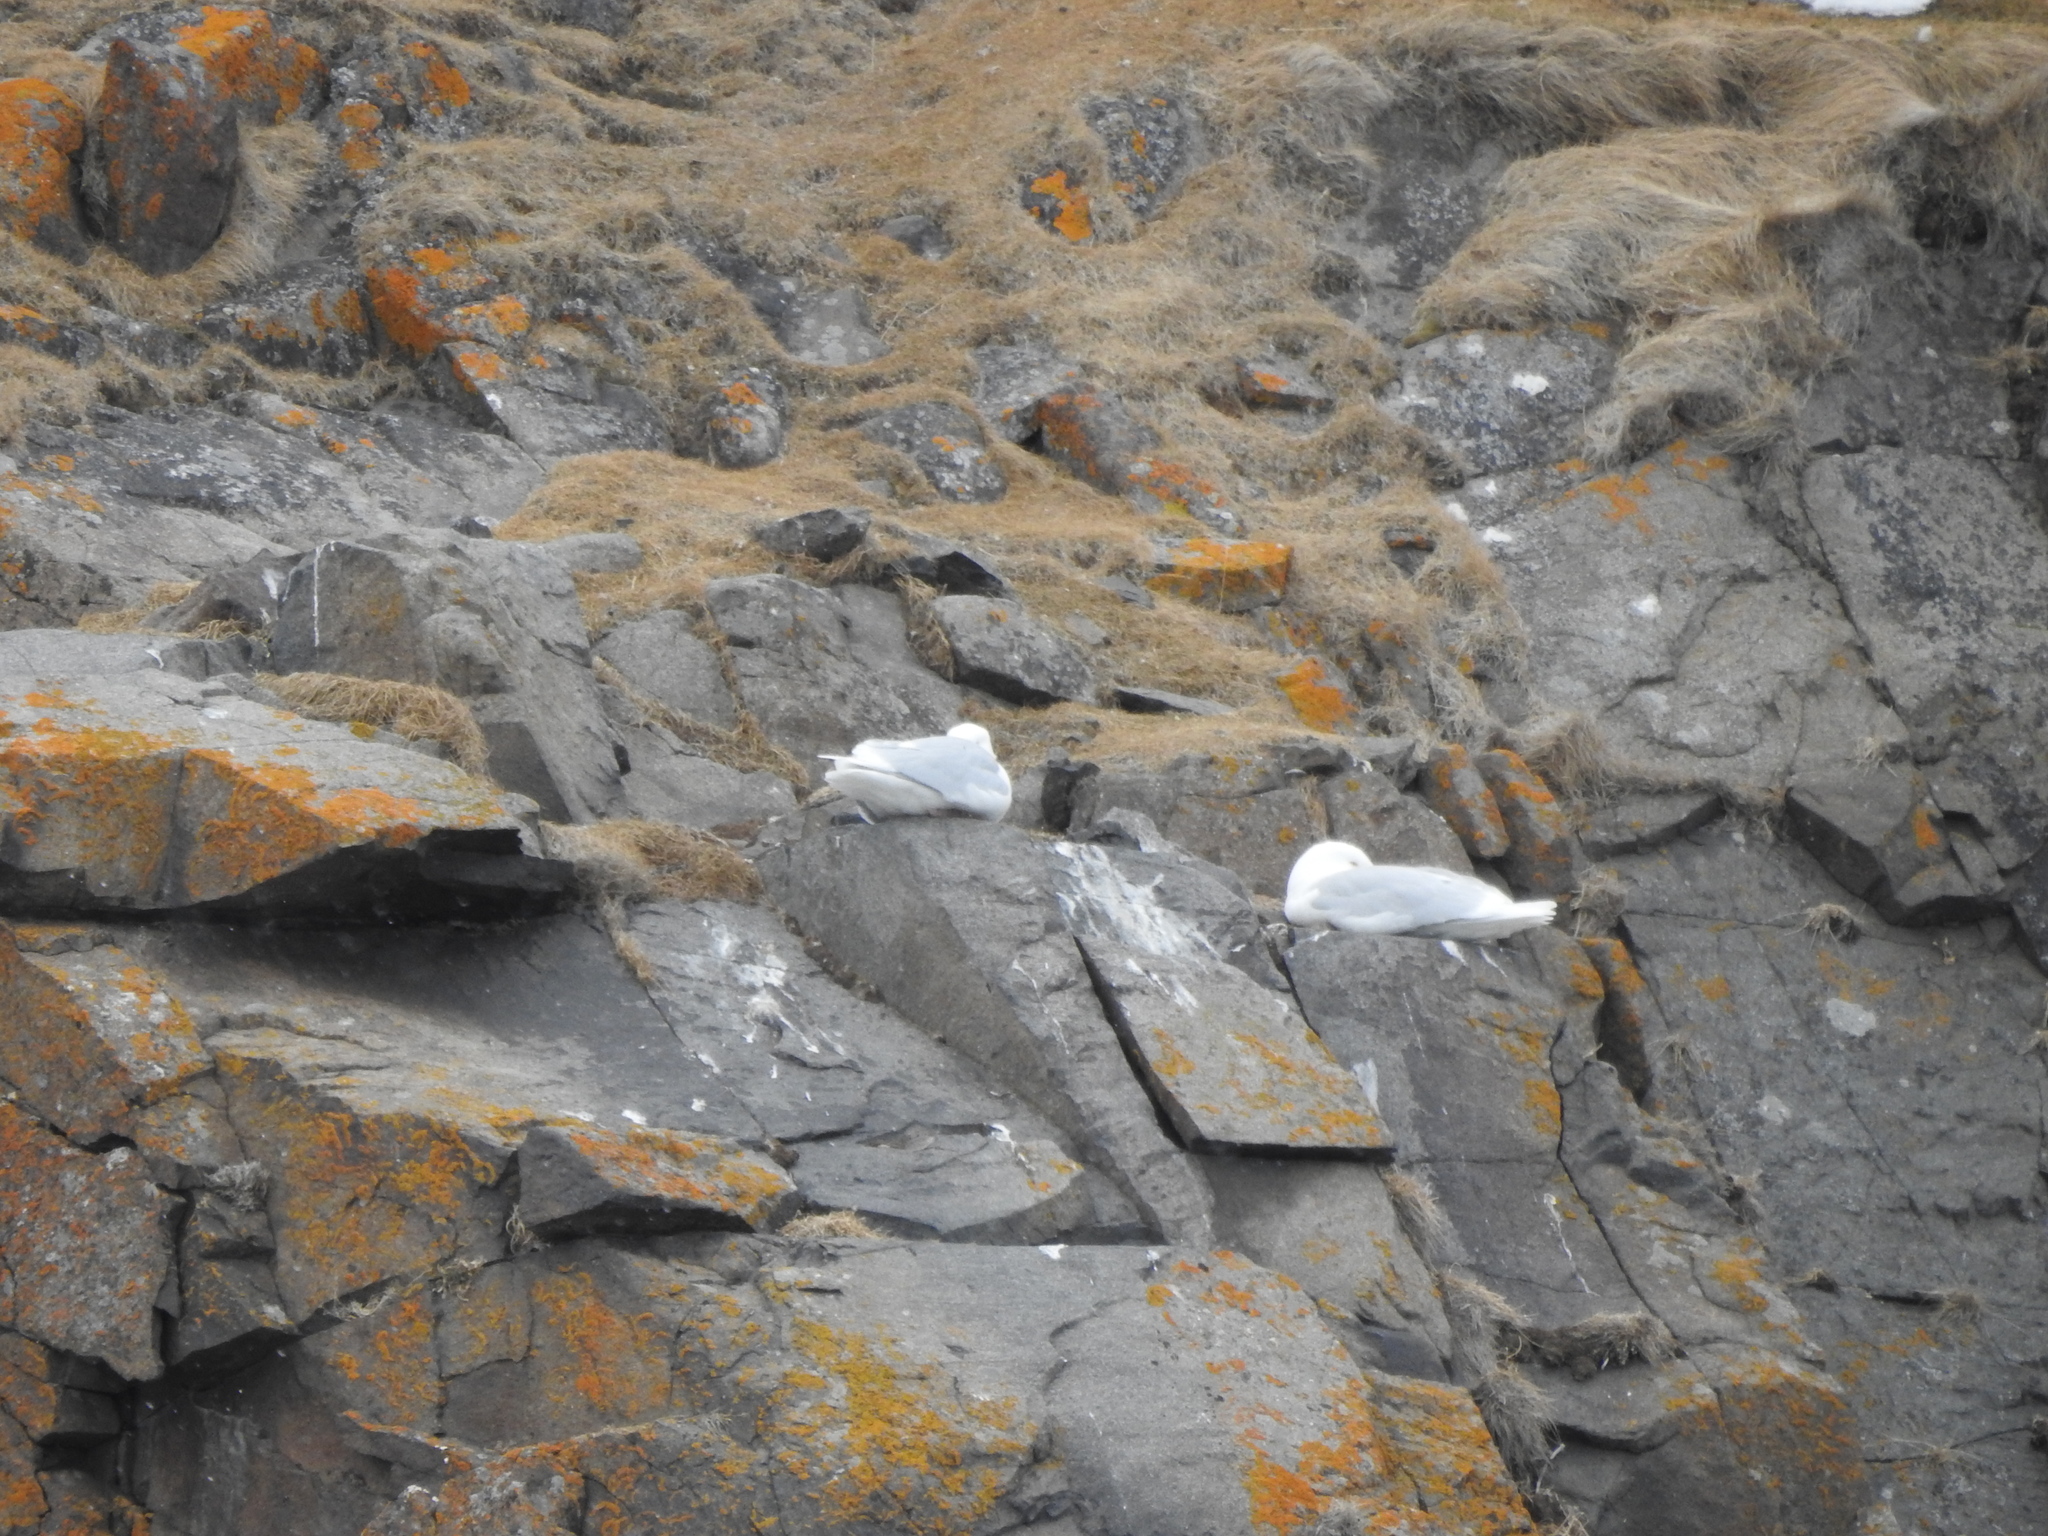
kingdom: Animalia
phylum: Chordata
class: Aves
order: Charadriiformes
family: Laridae
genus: Larus
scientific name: Larus hyperboreus
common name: Glaucous gull
